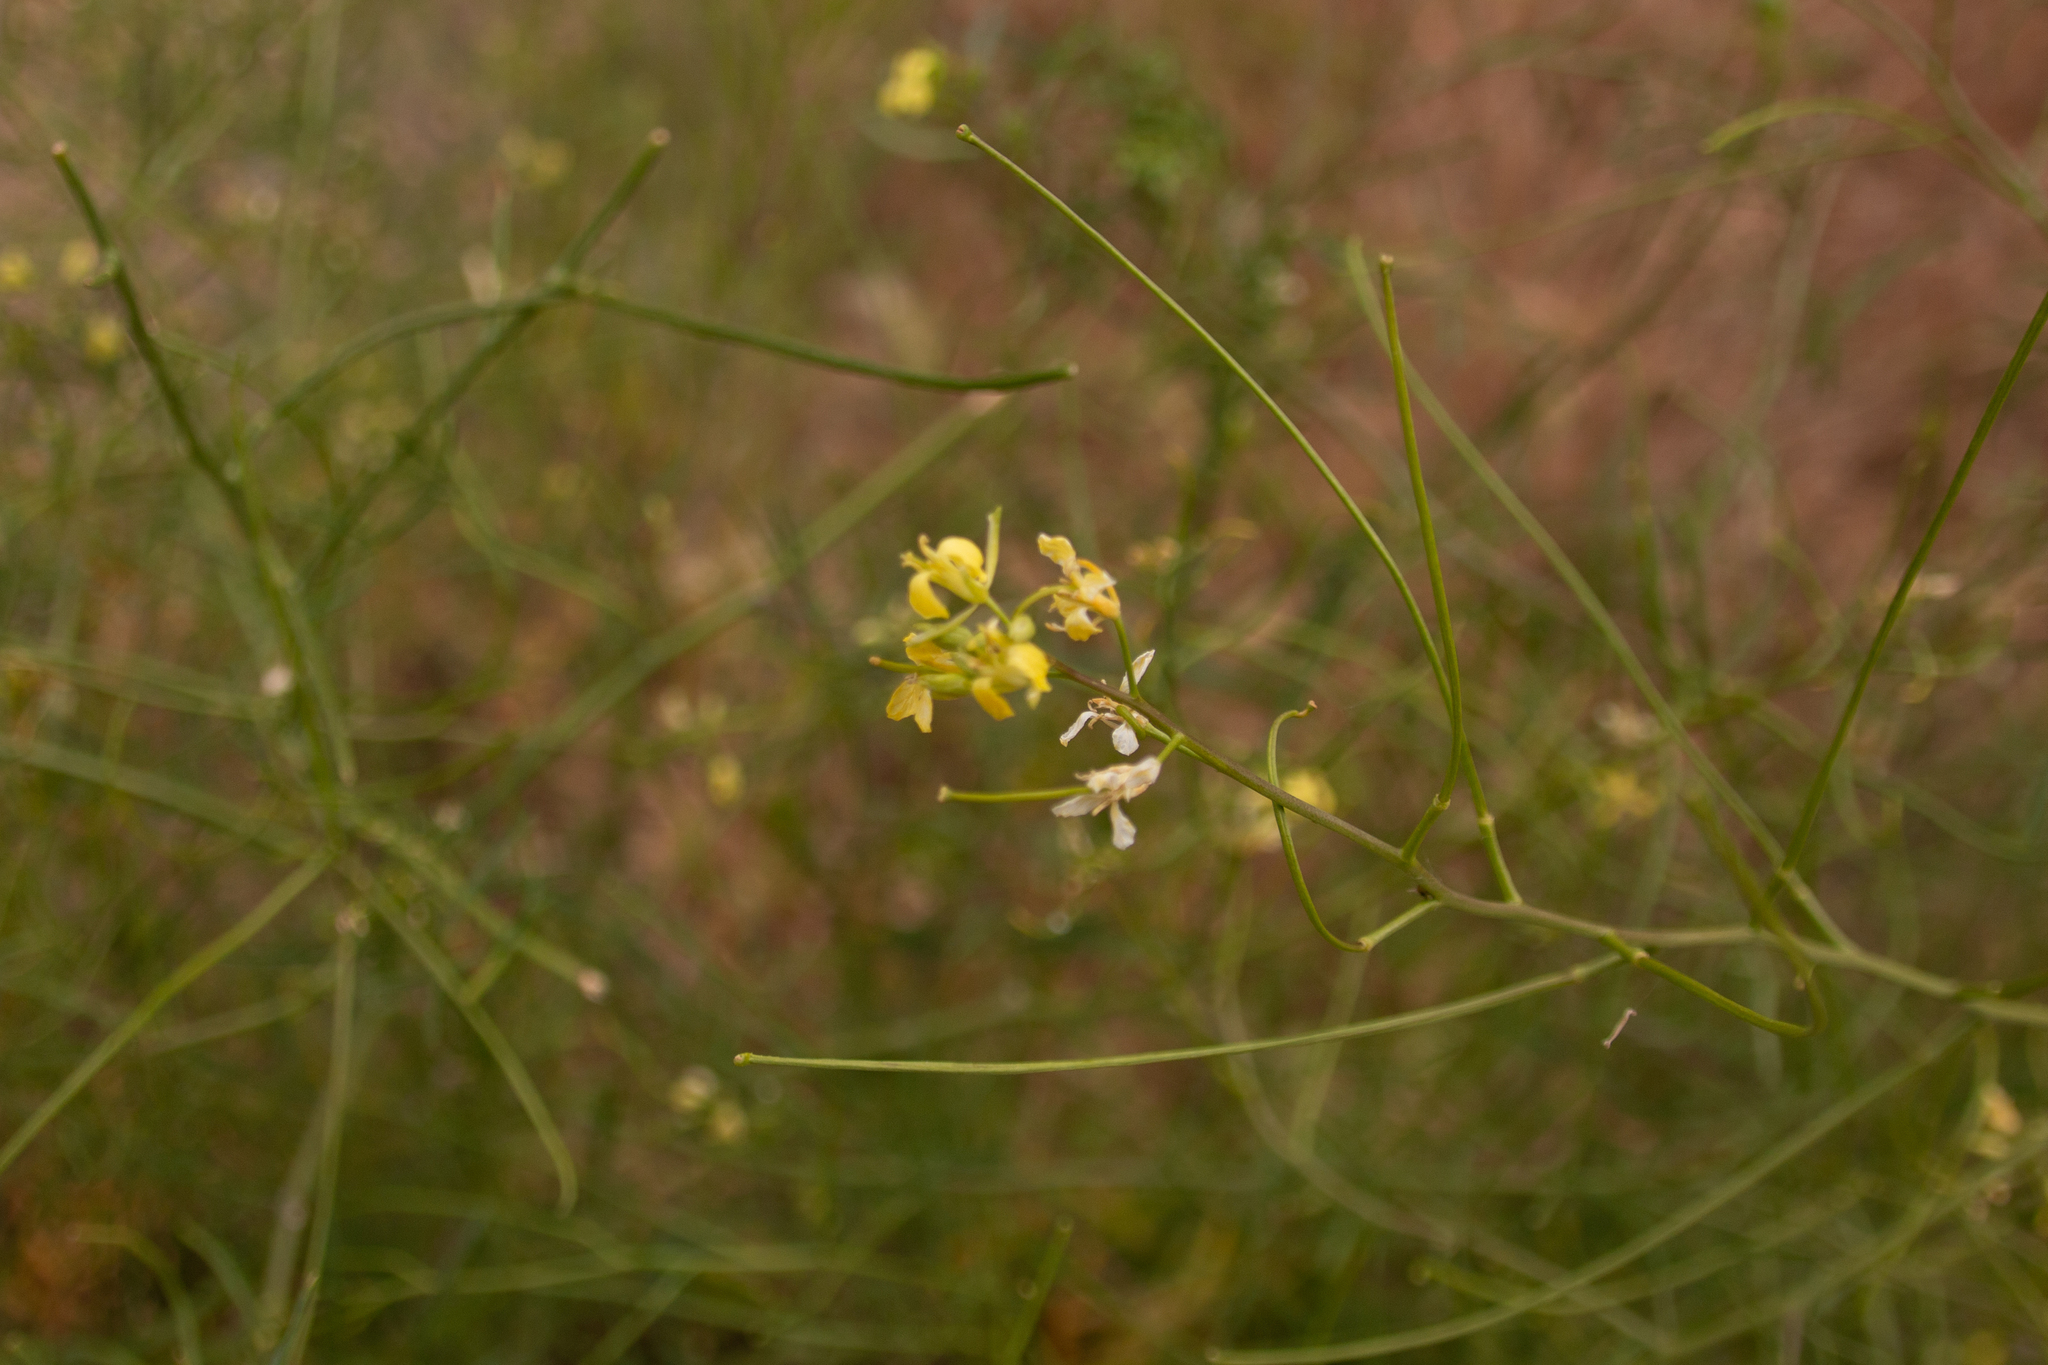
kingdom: Plantae
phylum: Tracheophyta
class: Magnoliopsida
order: Brassicales
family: Brassicaceae
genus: Sisymbrium
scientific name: Sisymbrium altissimum
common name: Tall rocket
